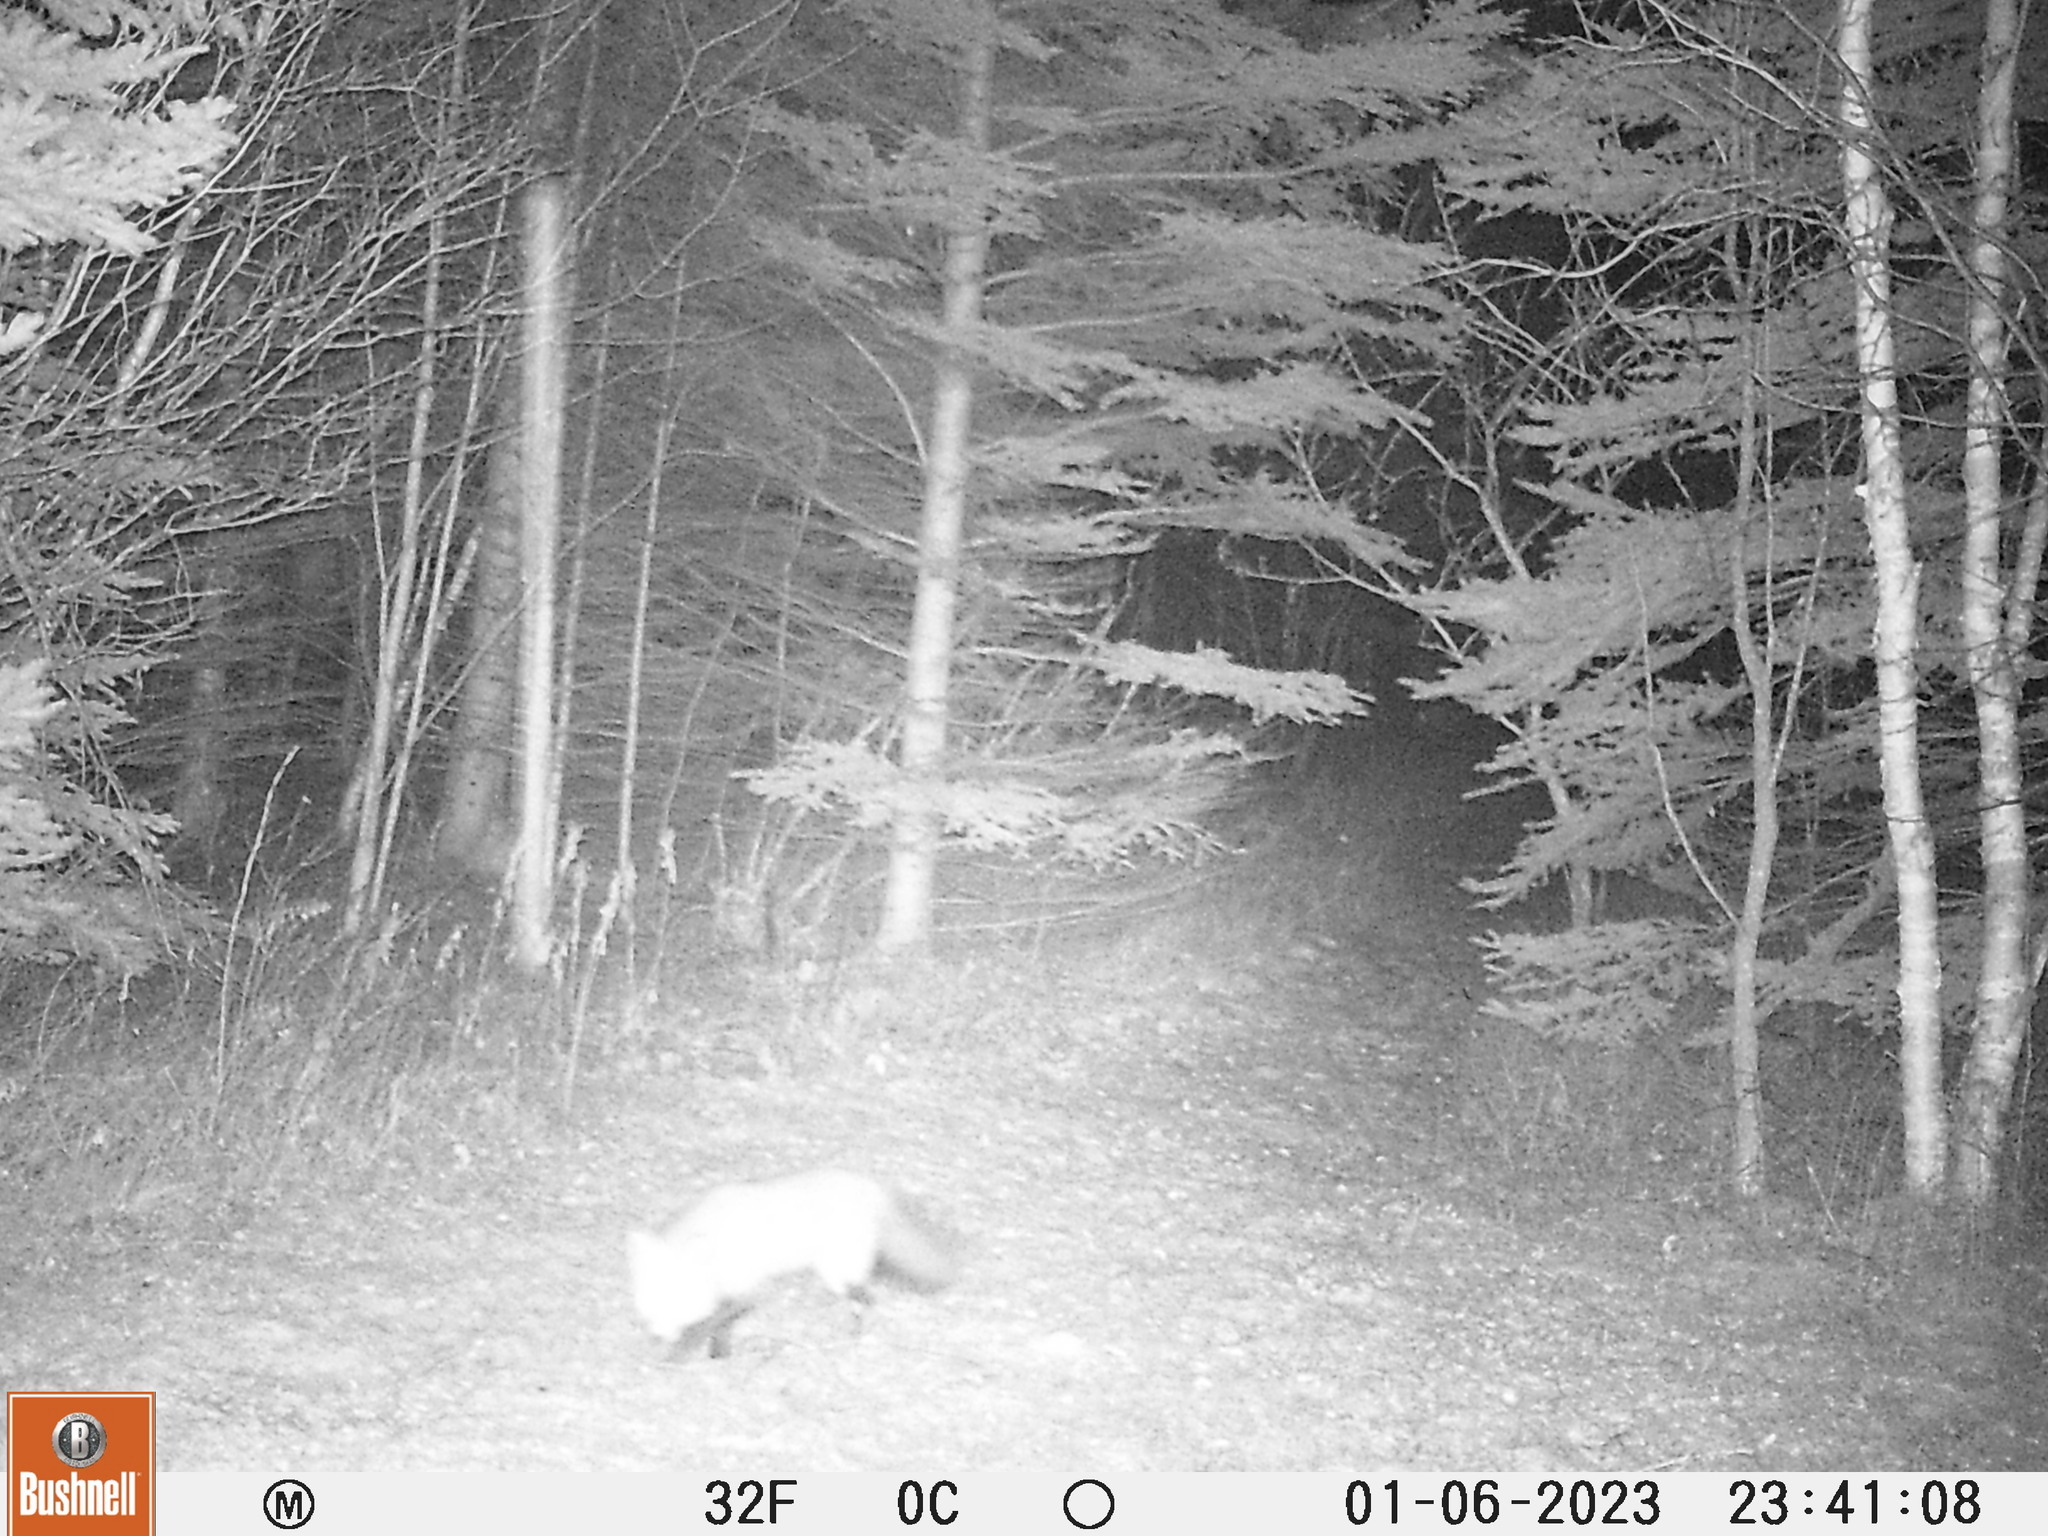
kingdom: Animalia
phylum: Chordata
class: Mammalia
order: Carnivora
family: Canidae
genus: Vulpes
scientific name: Vulpes vulpes
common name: Red fox
